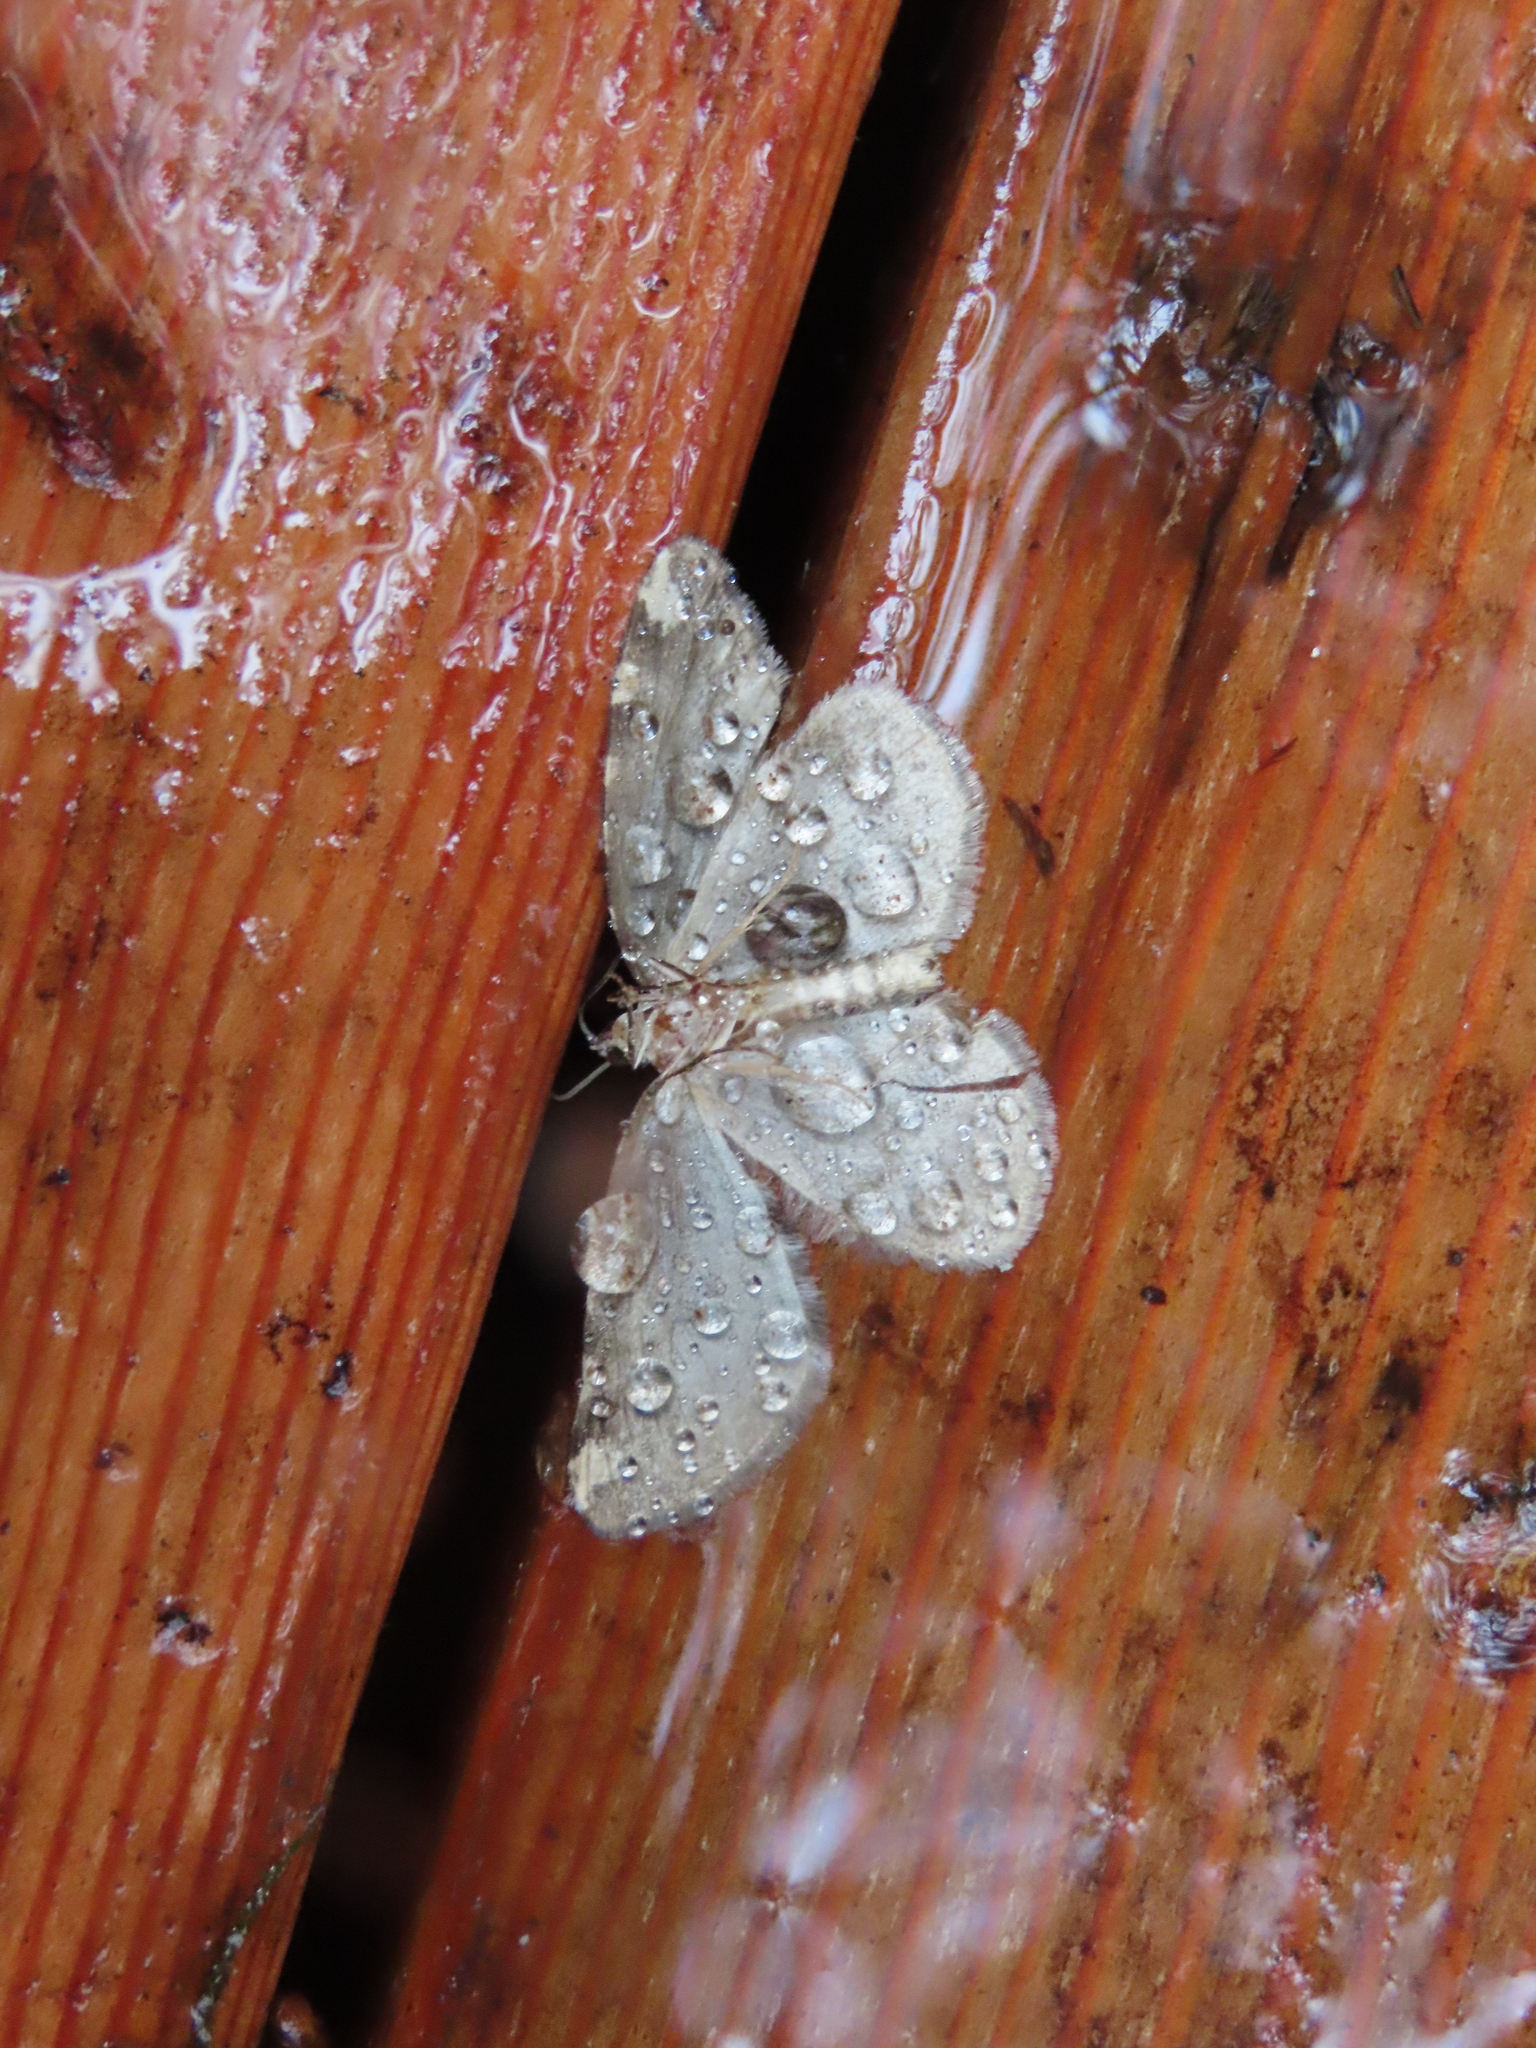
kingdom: Animalia
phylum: Arthropoda
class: Insecta
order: Lepidoptera
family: Geometridae
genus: Hydriomena
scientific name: Hydriomena nubilofasciata
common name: Oak winter highflier moth
